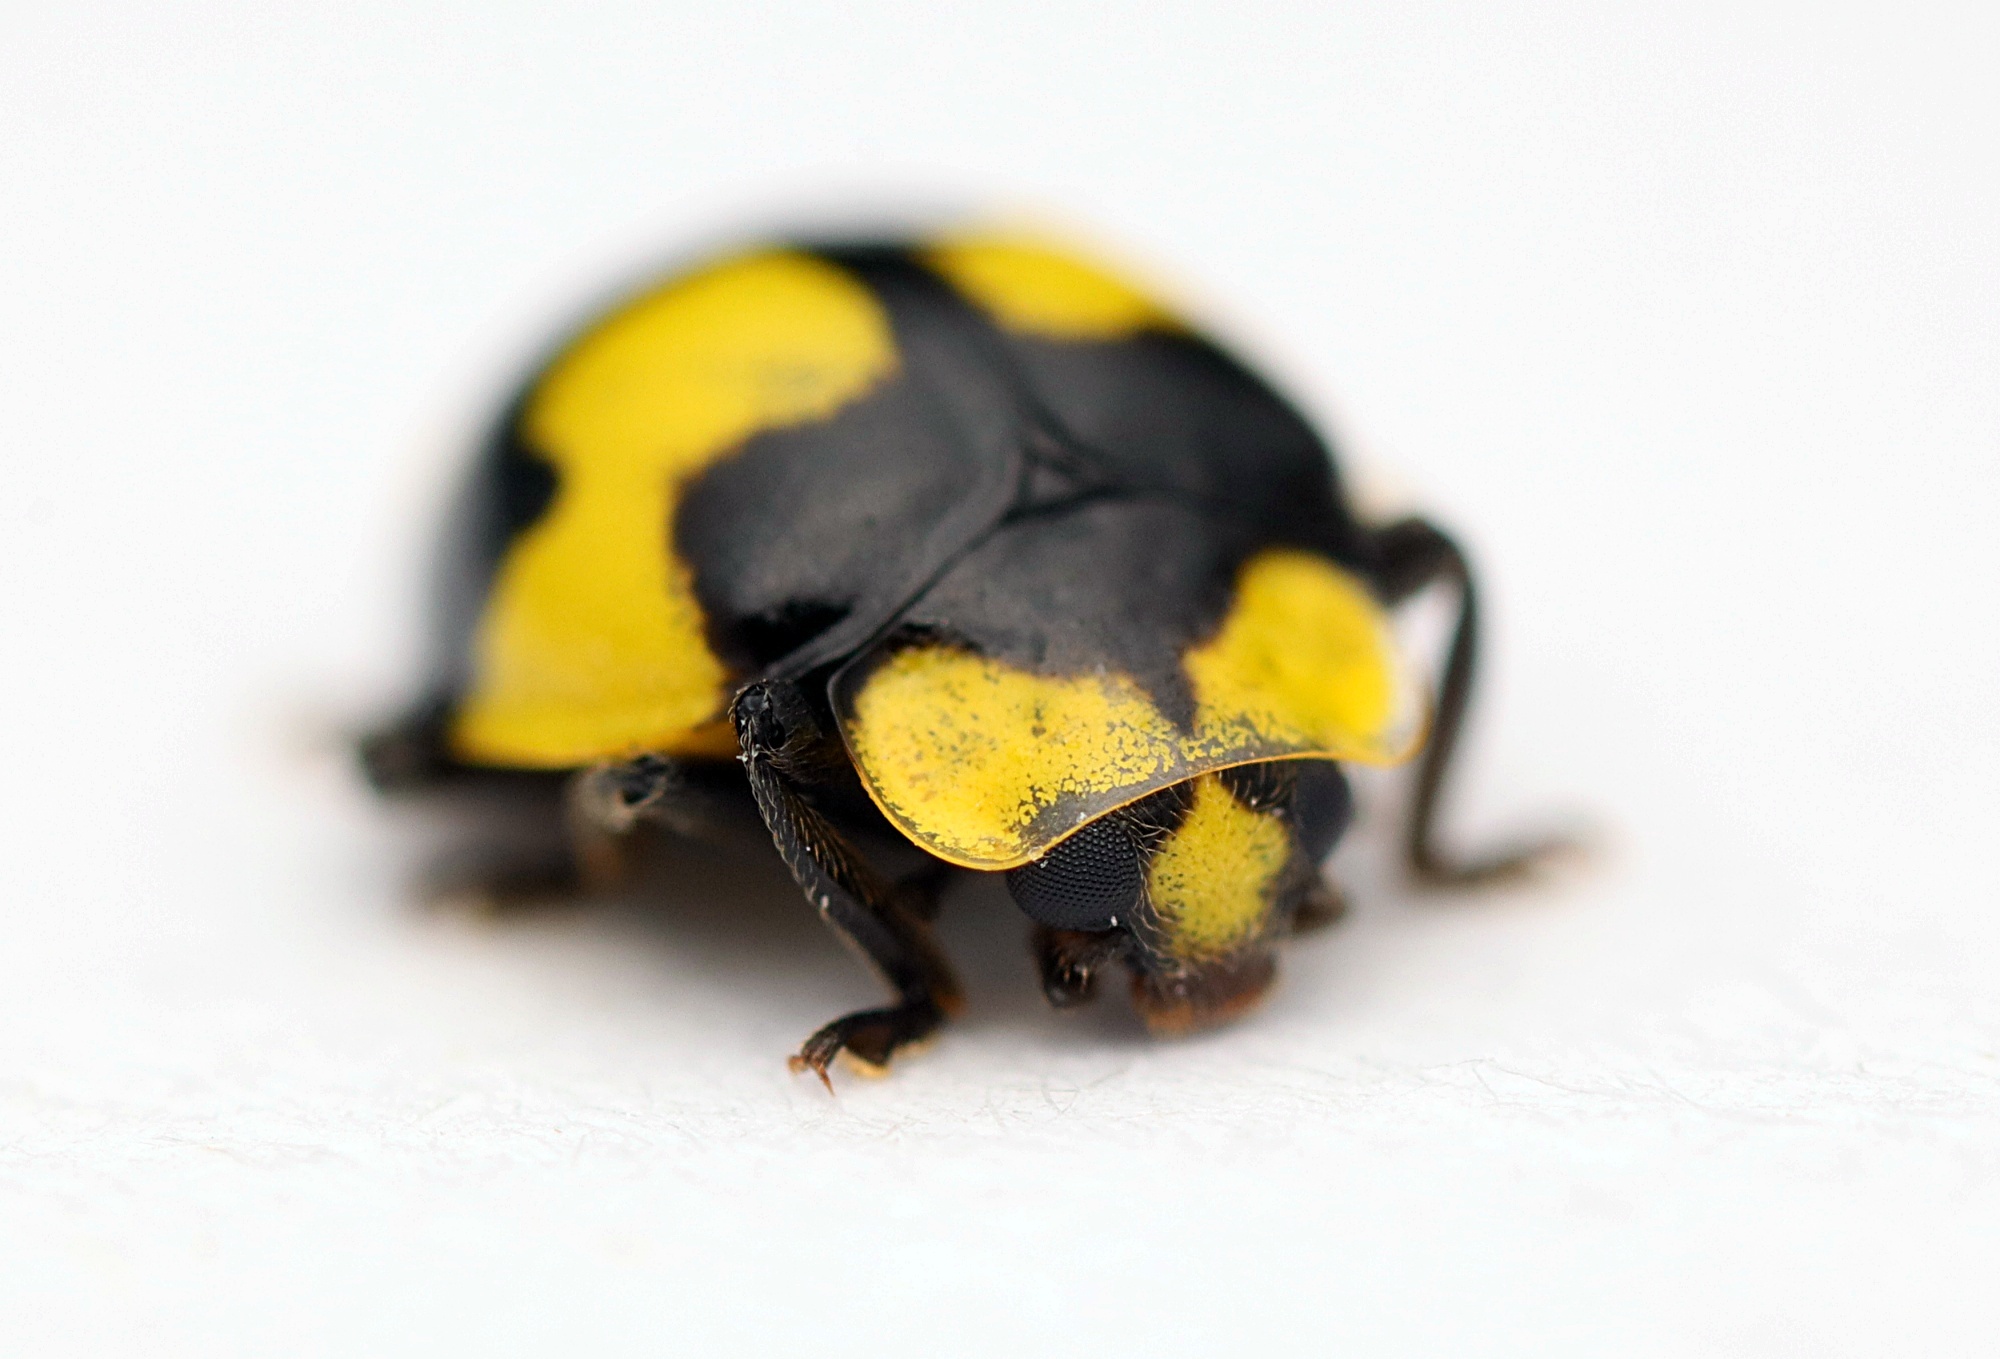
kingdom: Animalia
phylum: Arthropoda
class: Insecta
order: Coleoptera
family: Coccinellidae
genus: Illeis
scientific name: Illeis galbula
